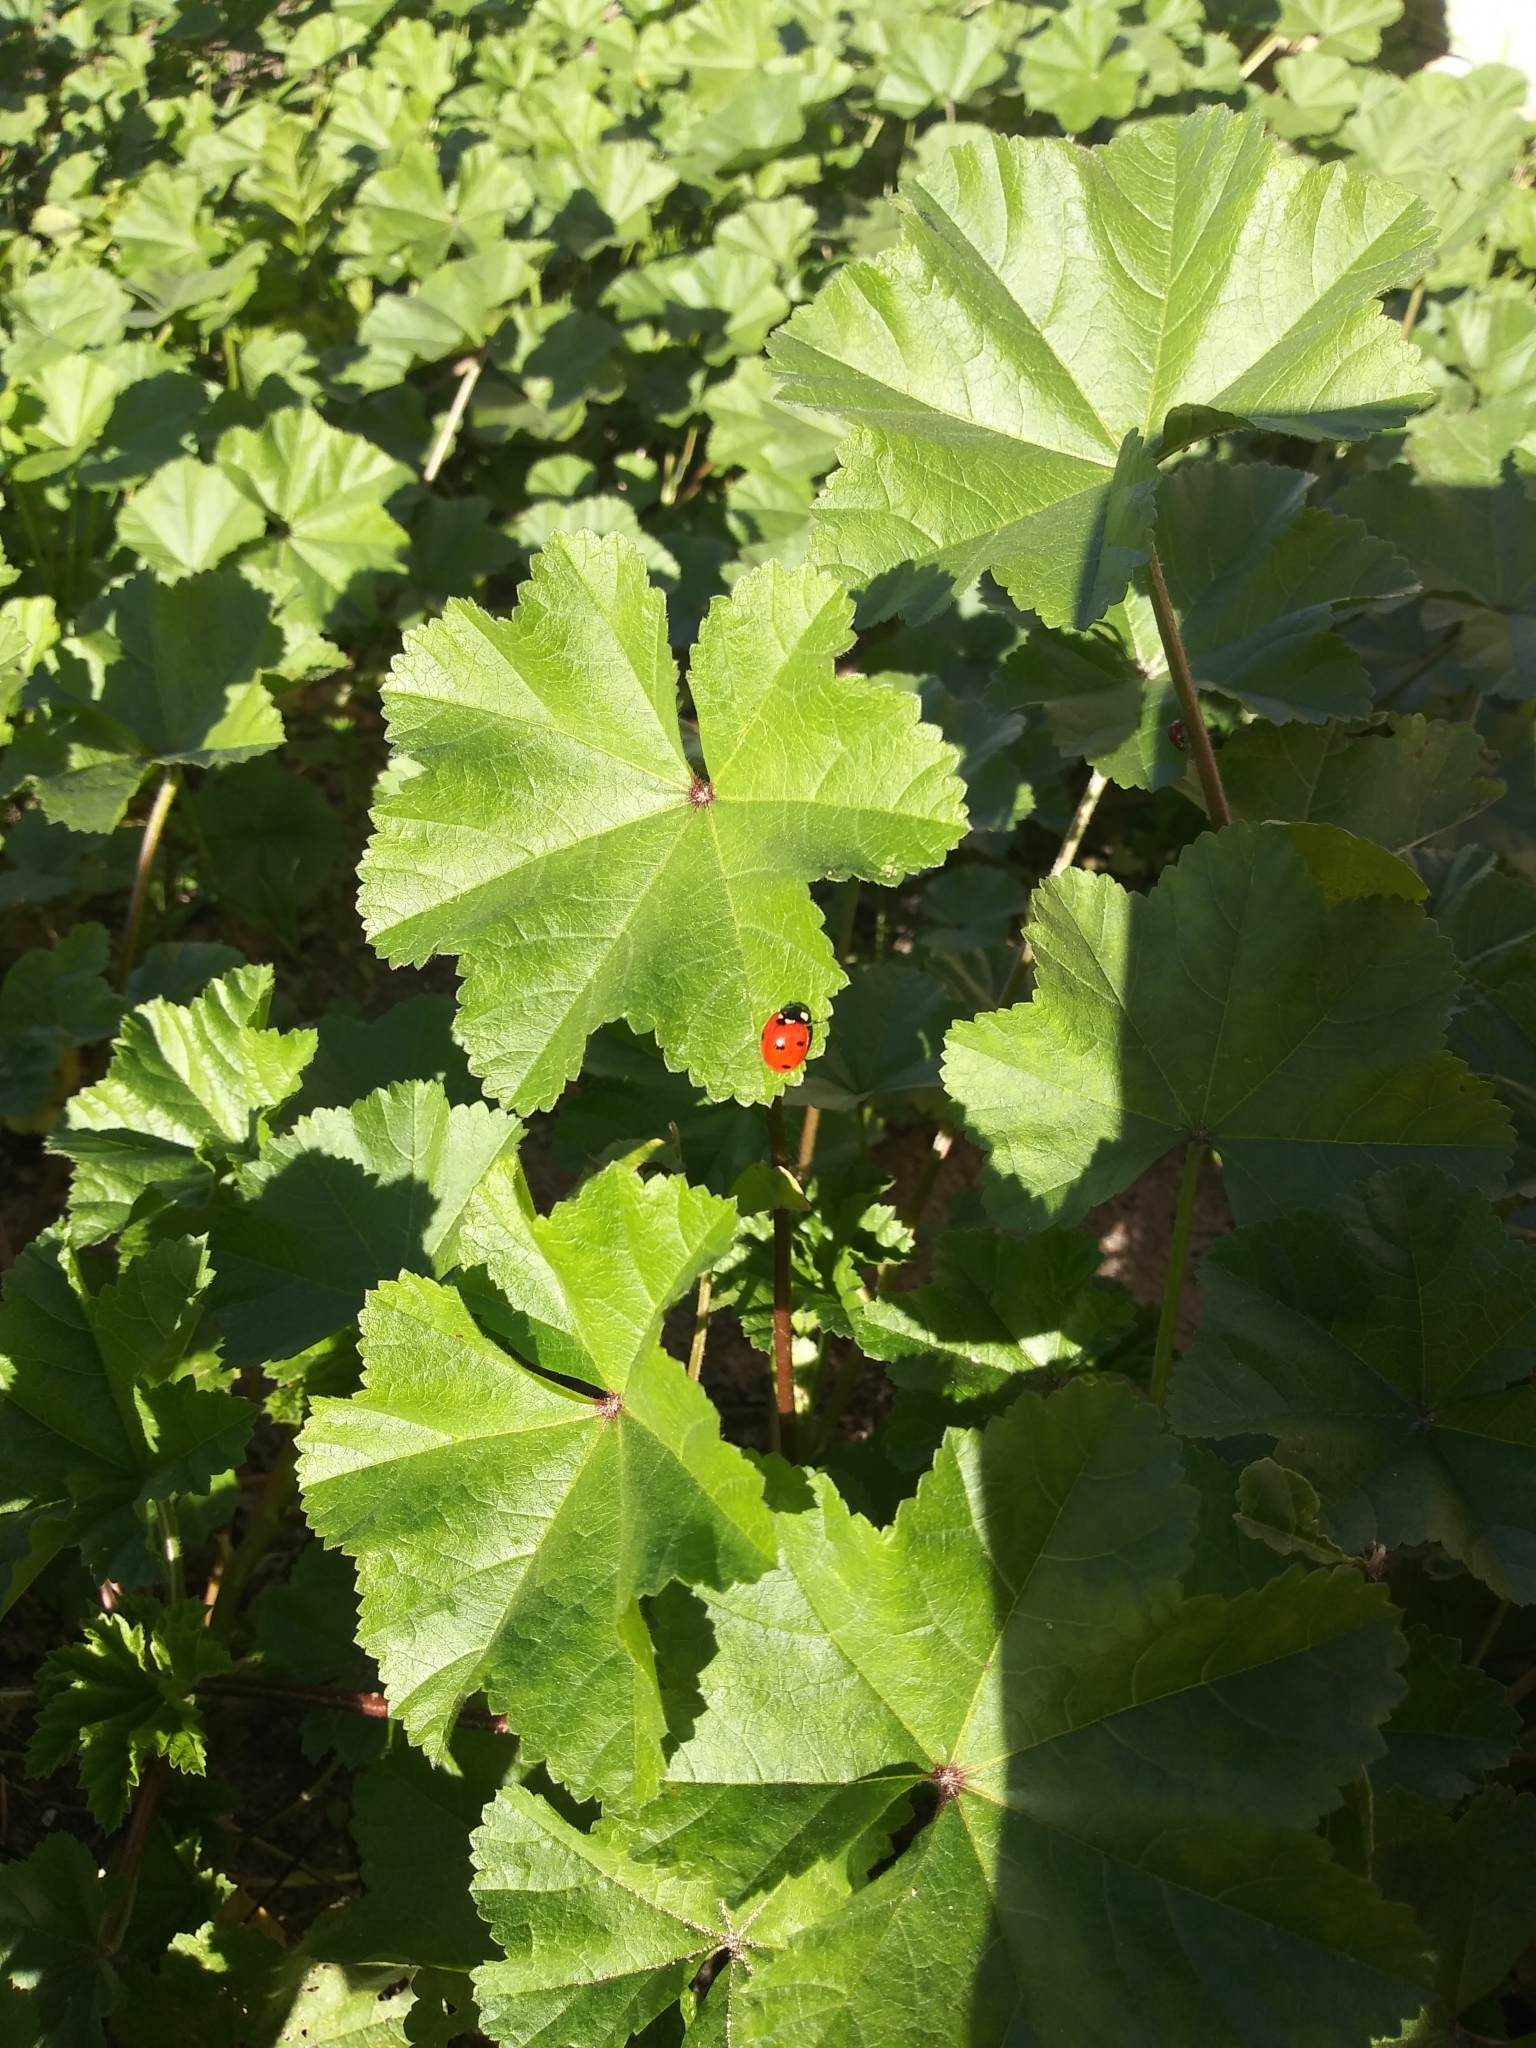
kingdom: Animalia
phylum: Arthropoda
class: Insecta
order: Coleoptera
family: Coccinellidae
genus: Coccinella
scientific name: Coccinella septempunctata
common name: Sevenspotted lady beetle
